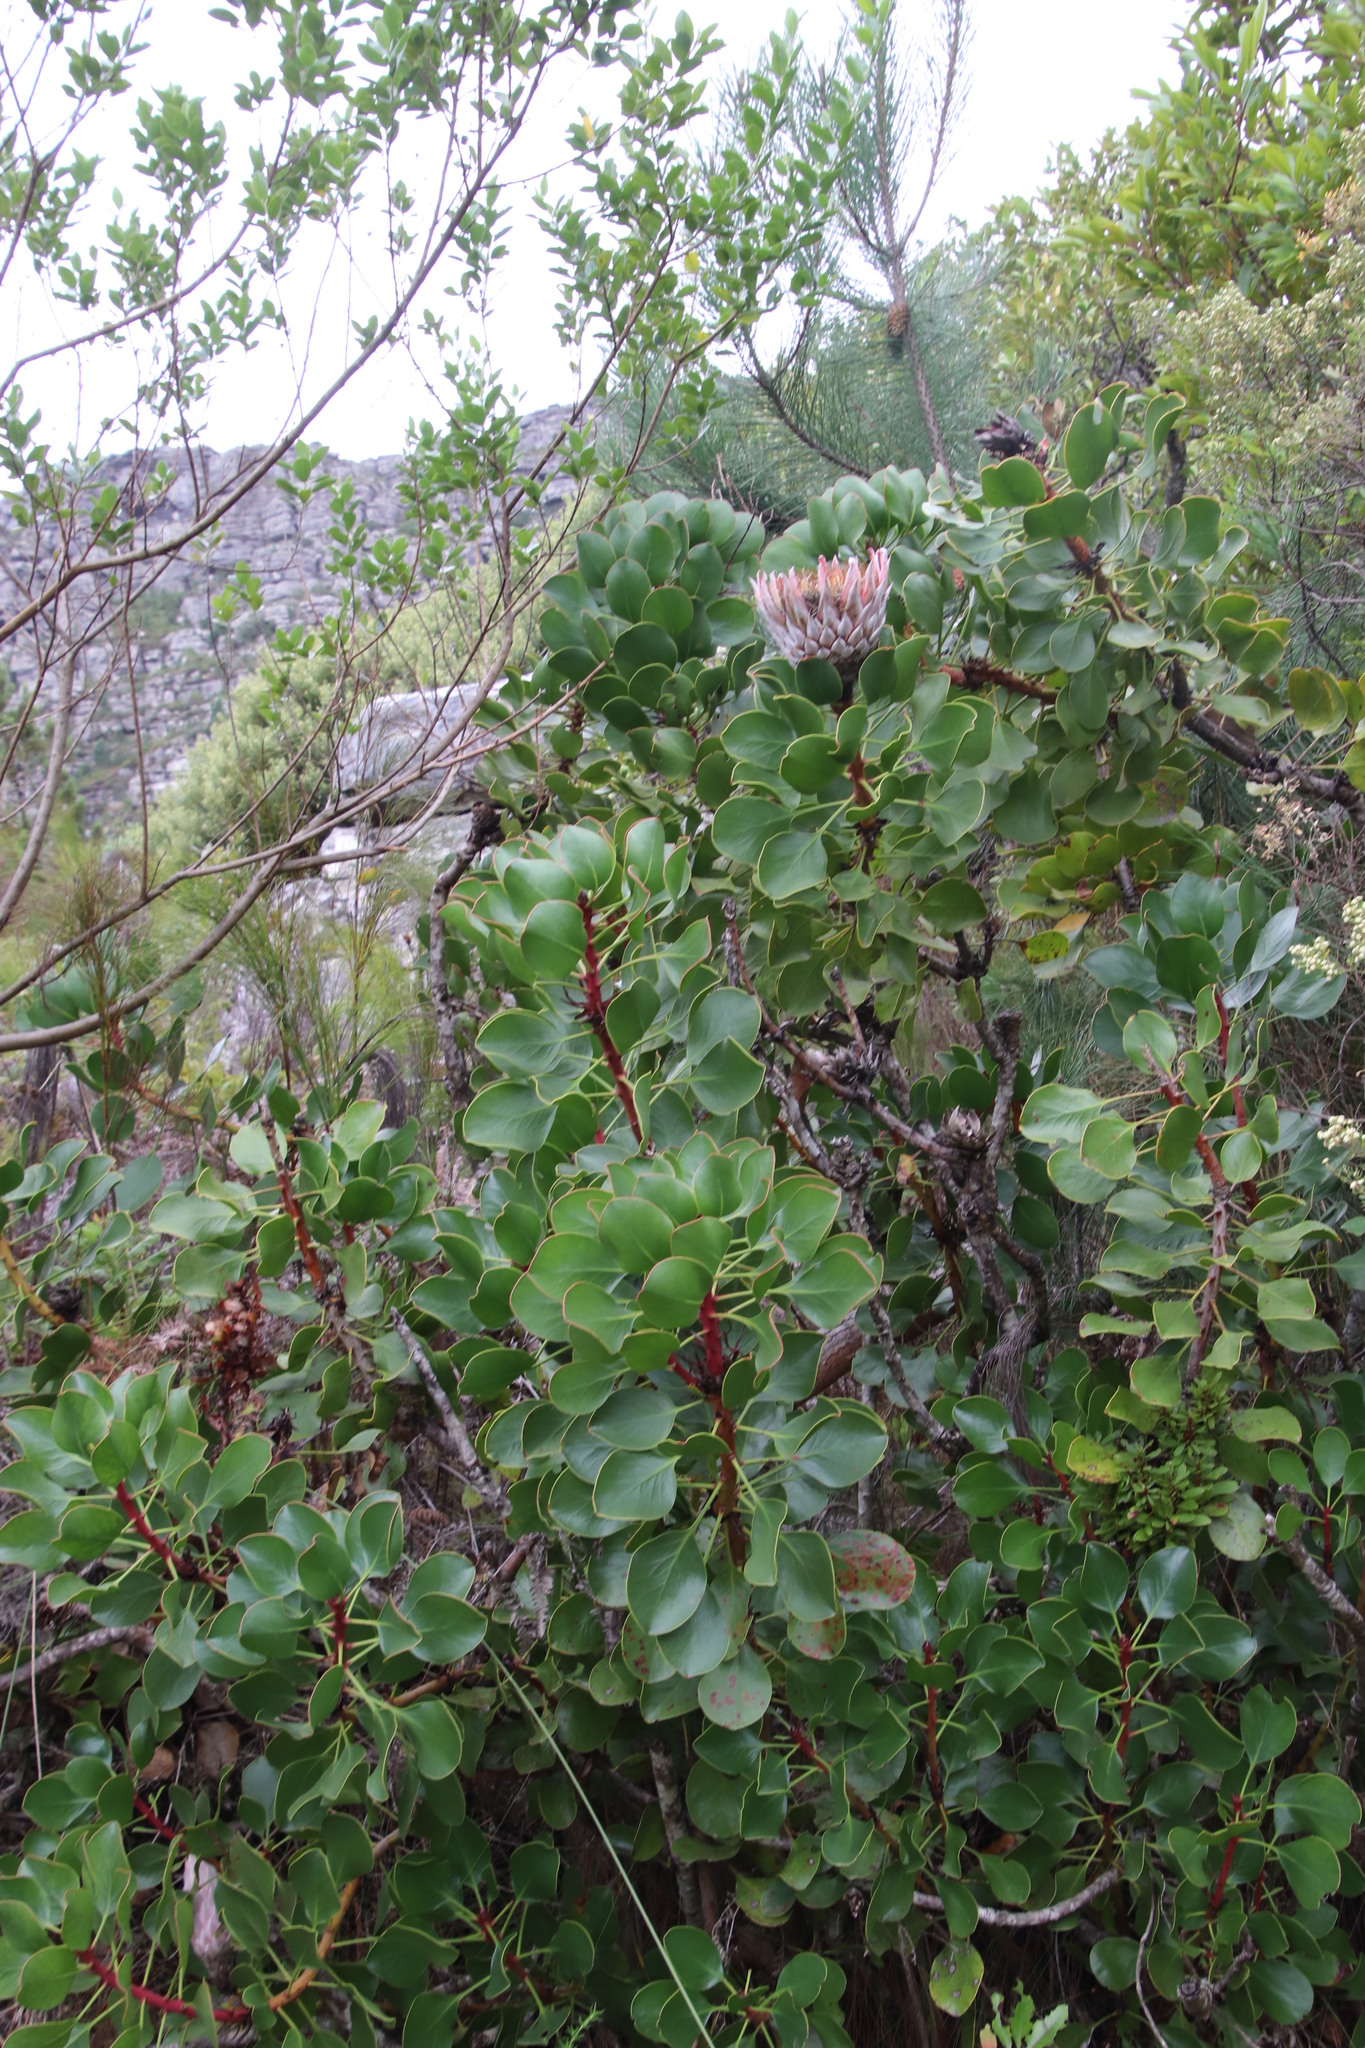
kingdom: Plantae
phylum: Tracheophyta
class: Magnoliopsida
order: Proteales
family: Proteaceae
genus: Protea
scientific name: Protea cynaroides
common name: King protea
